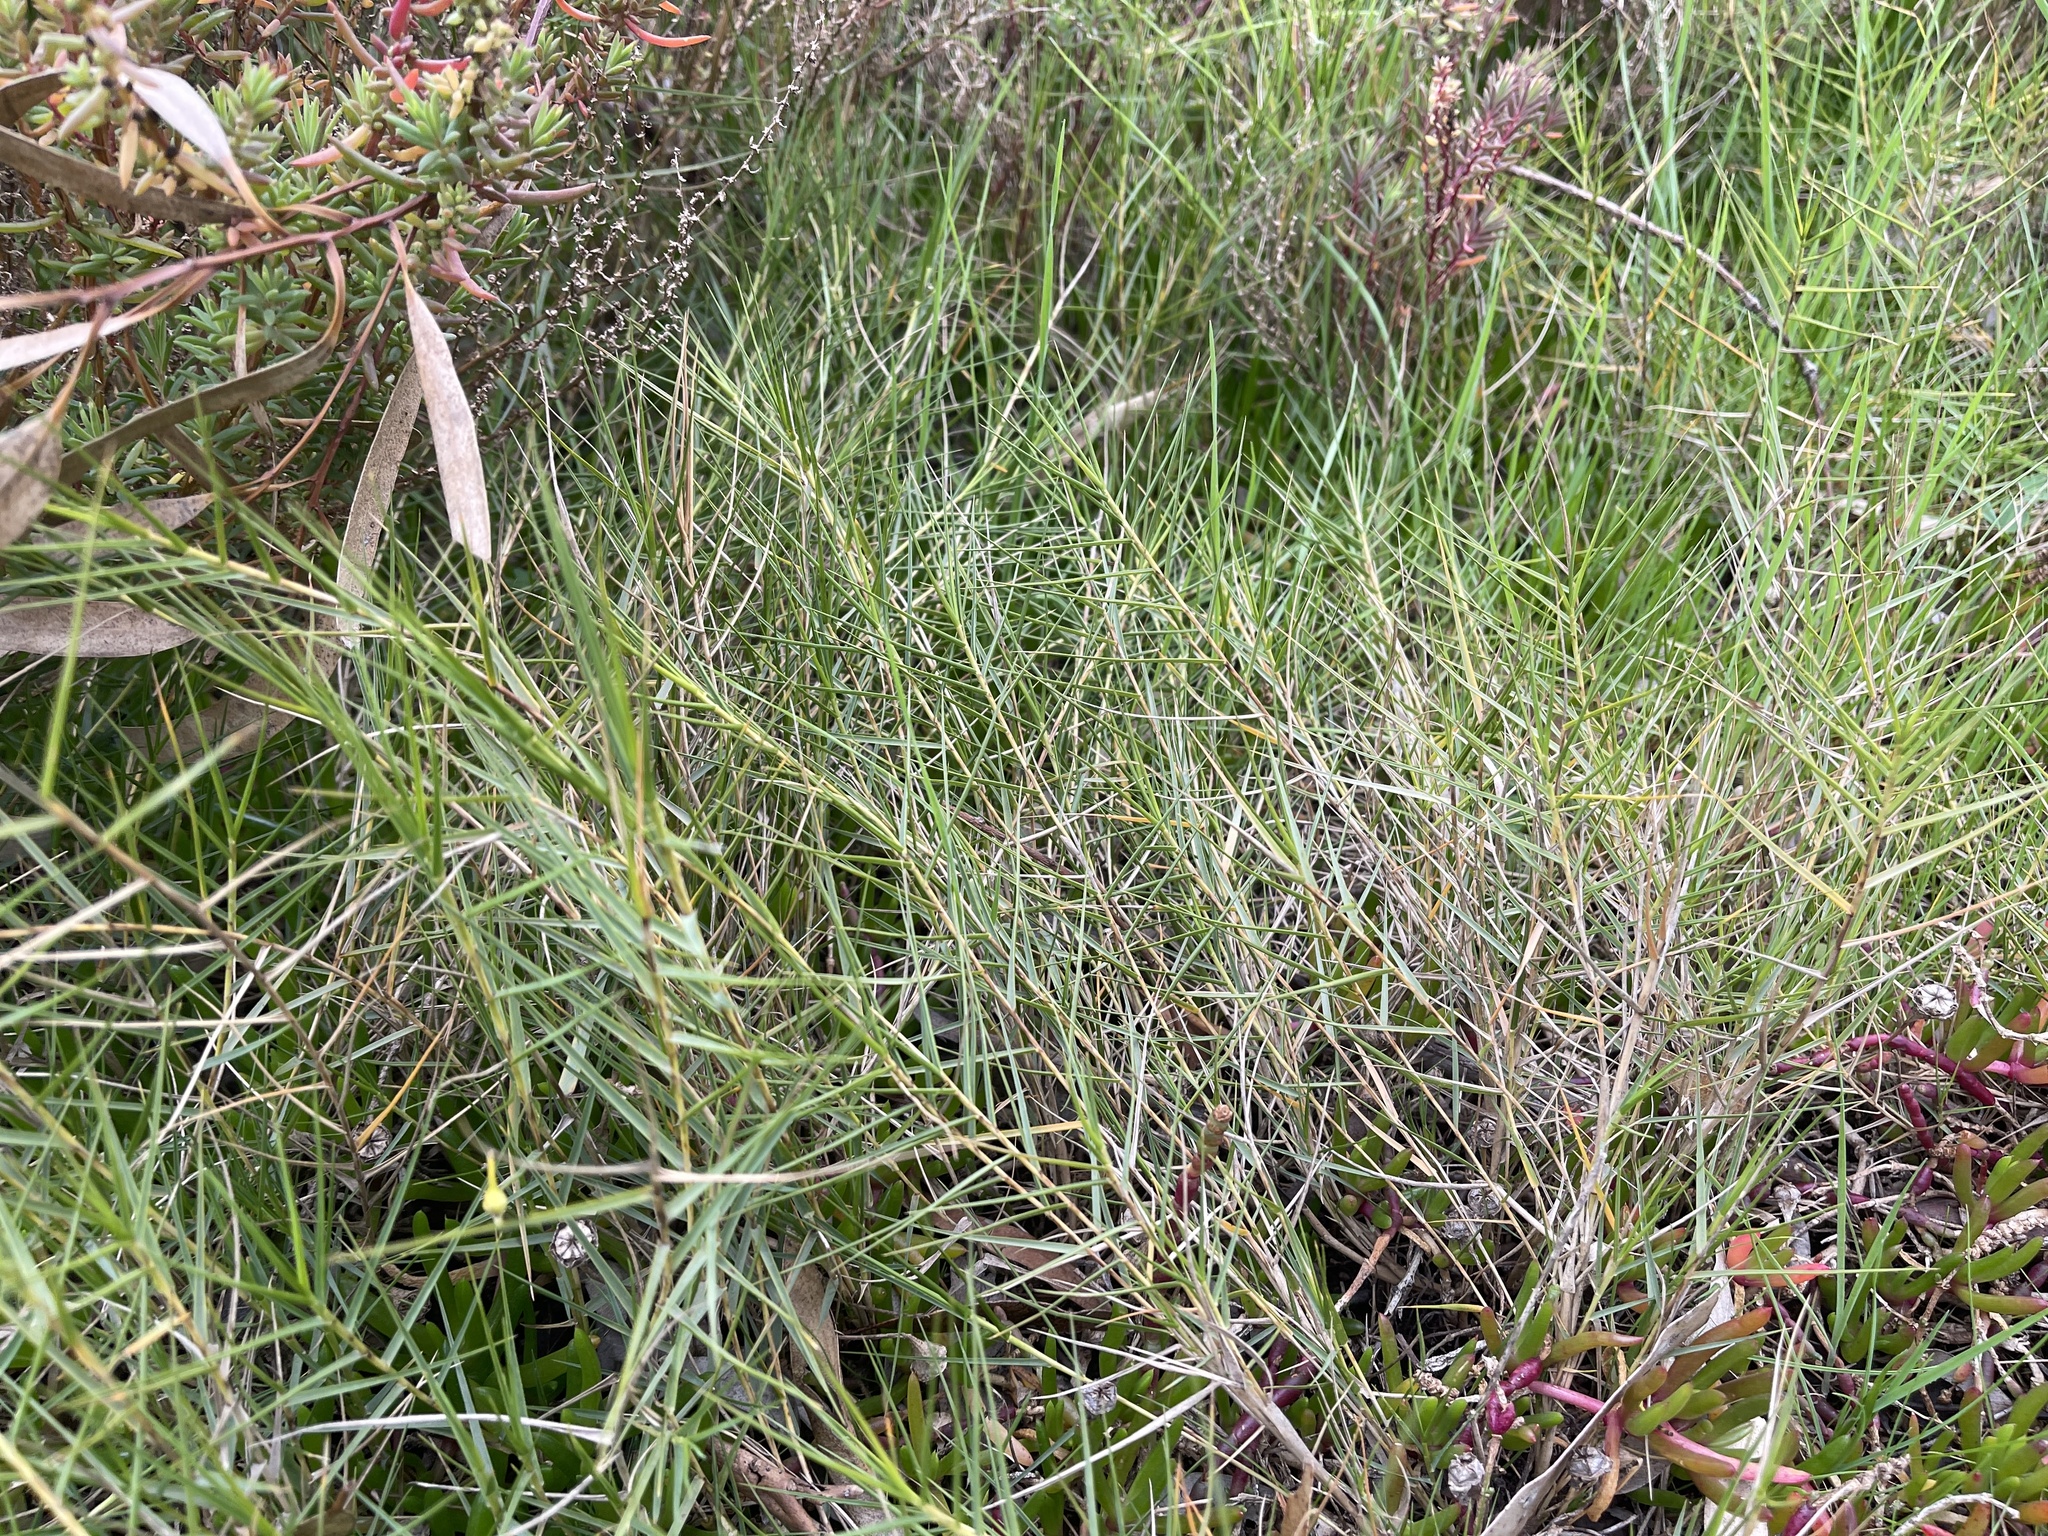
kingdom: Plantae
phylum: Tracheophyta
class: Liliopsida
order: Poales
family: Poaceae
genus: Distichlis
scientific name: Distichlis distichophylla
